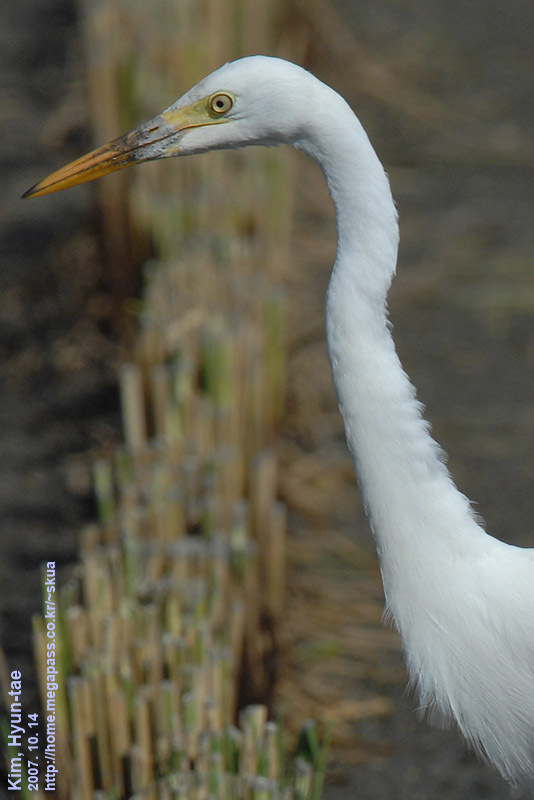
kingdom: Animalia
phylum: Chordata
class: Aves
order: Pelecaniformes
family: Ardeidae
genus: Ardea
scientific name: Ardea alba
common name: Great egret
